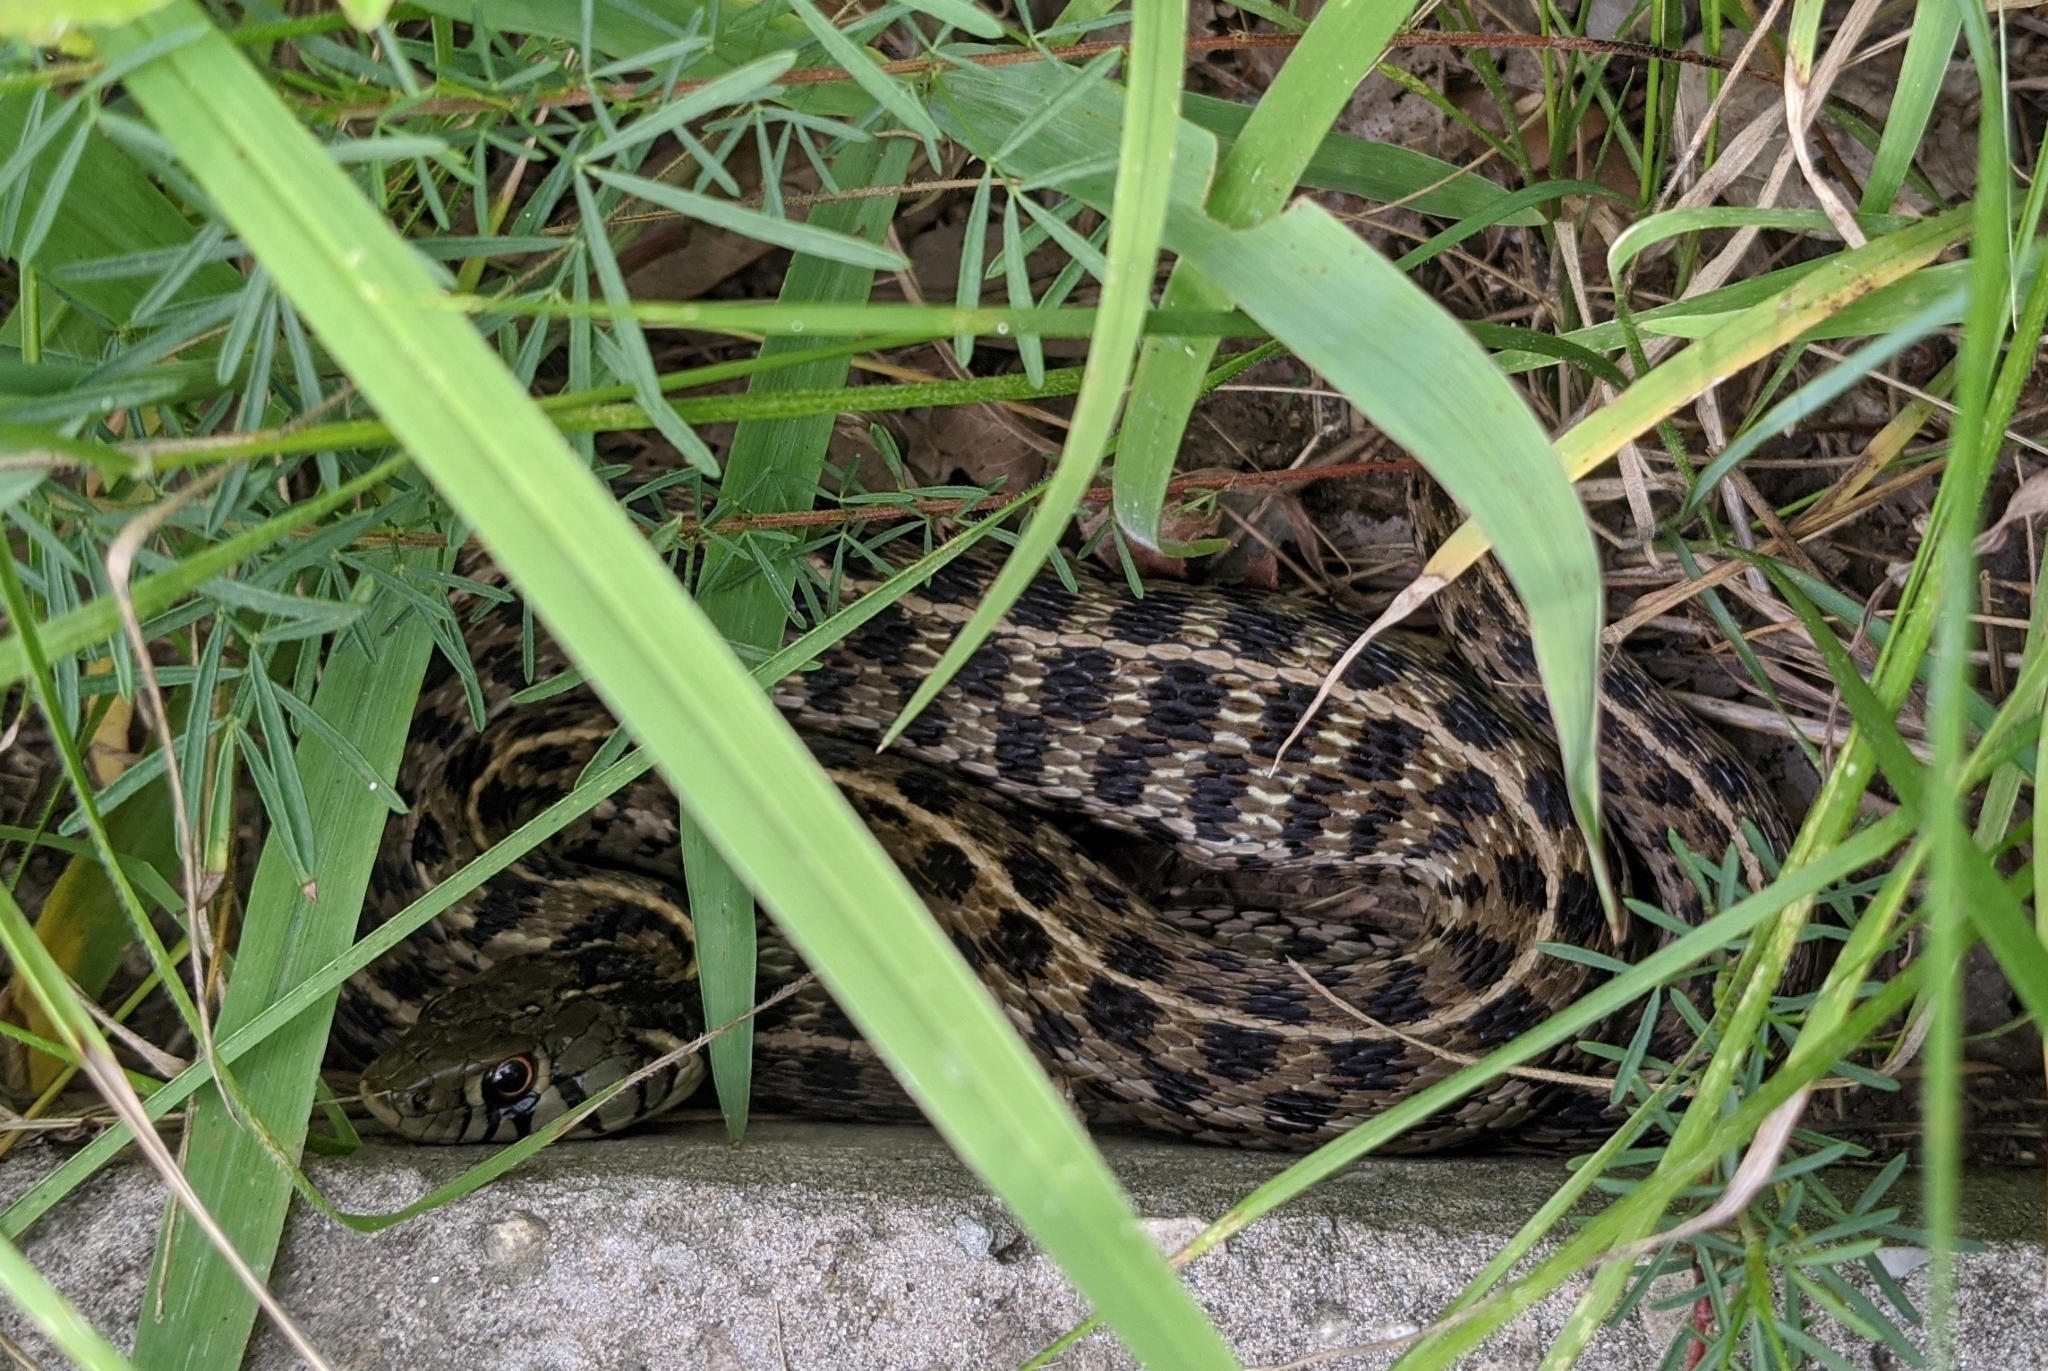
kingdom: Animalia
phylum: Chordata
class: Squamata
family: Colubridae
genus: Thamnophis
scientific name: Thamnophis marcianus
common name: Checkered garter snake
